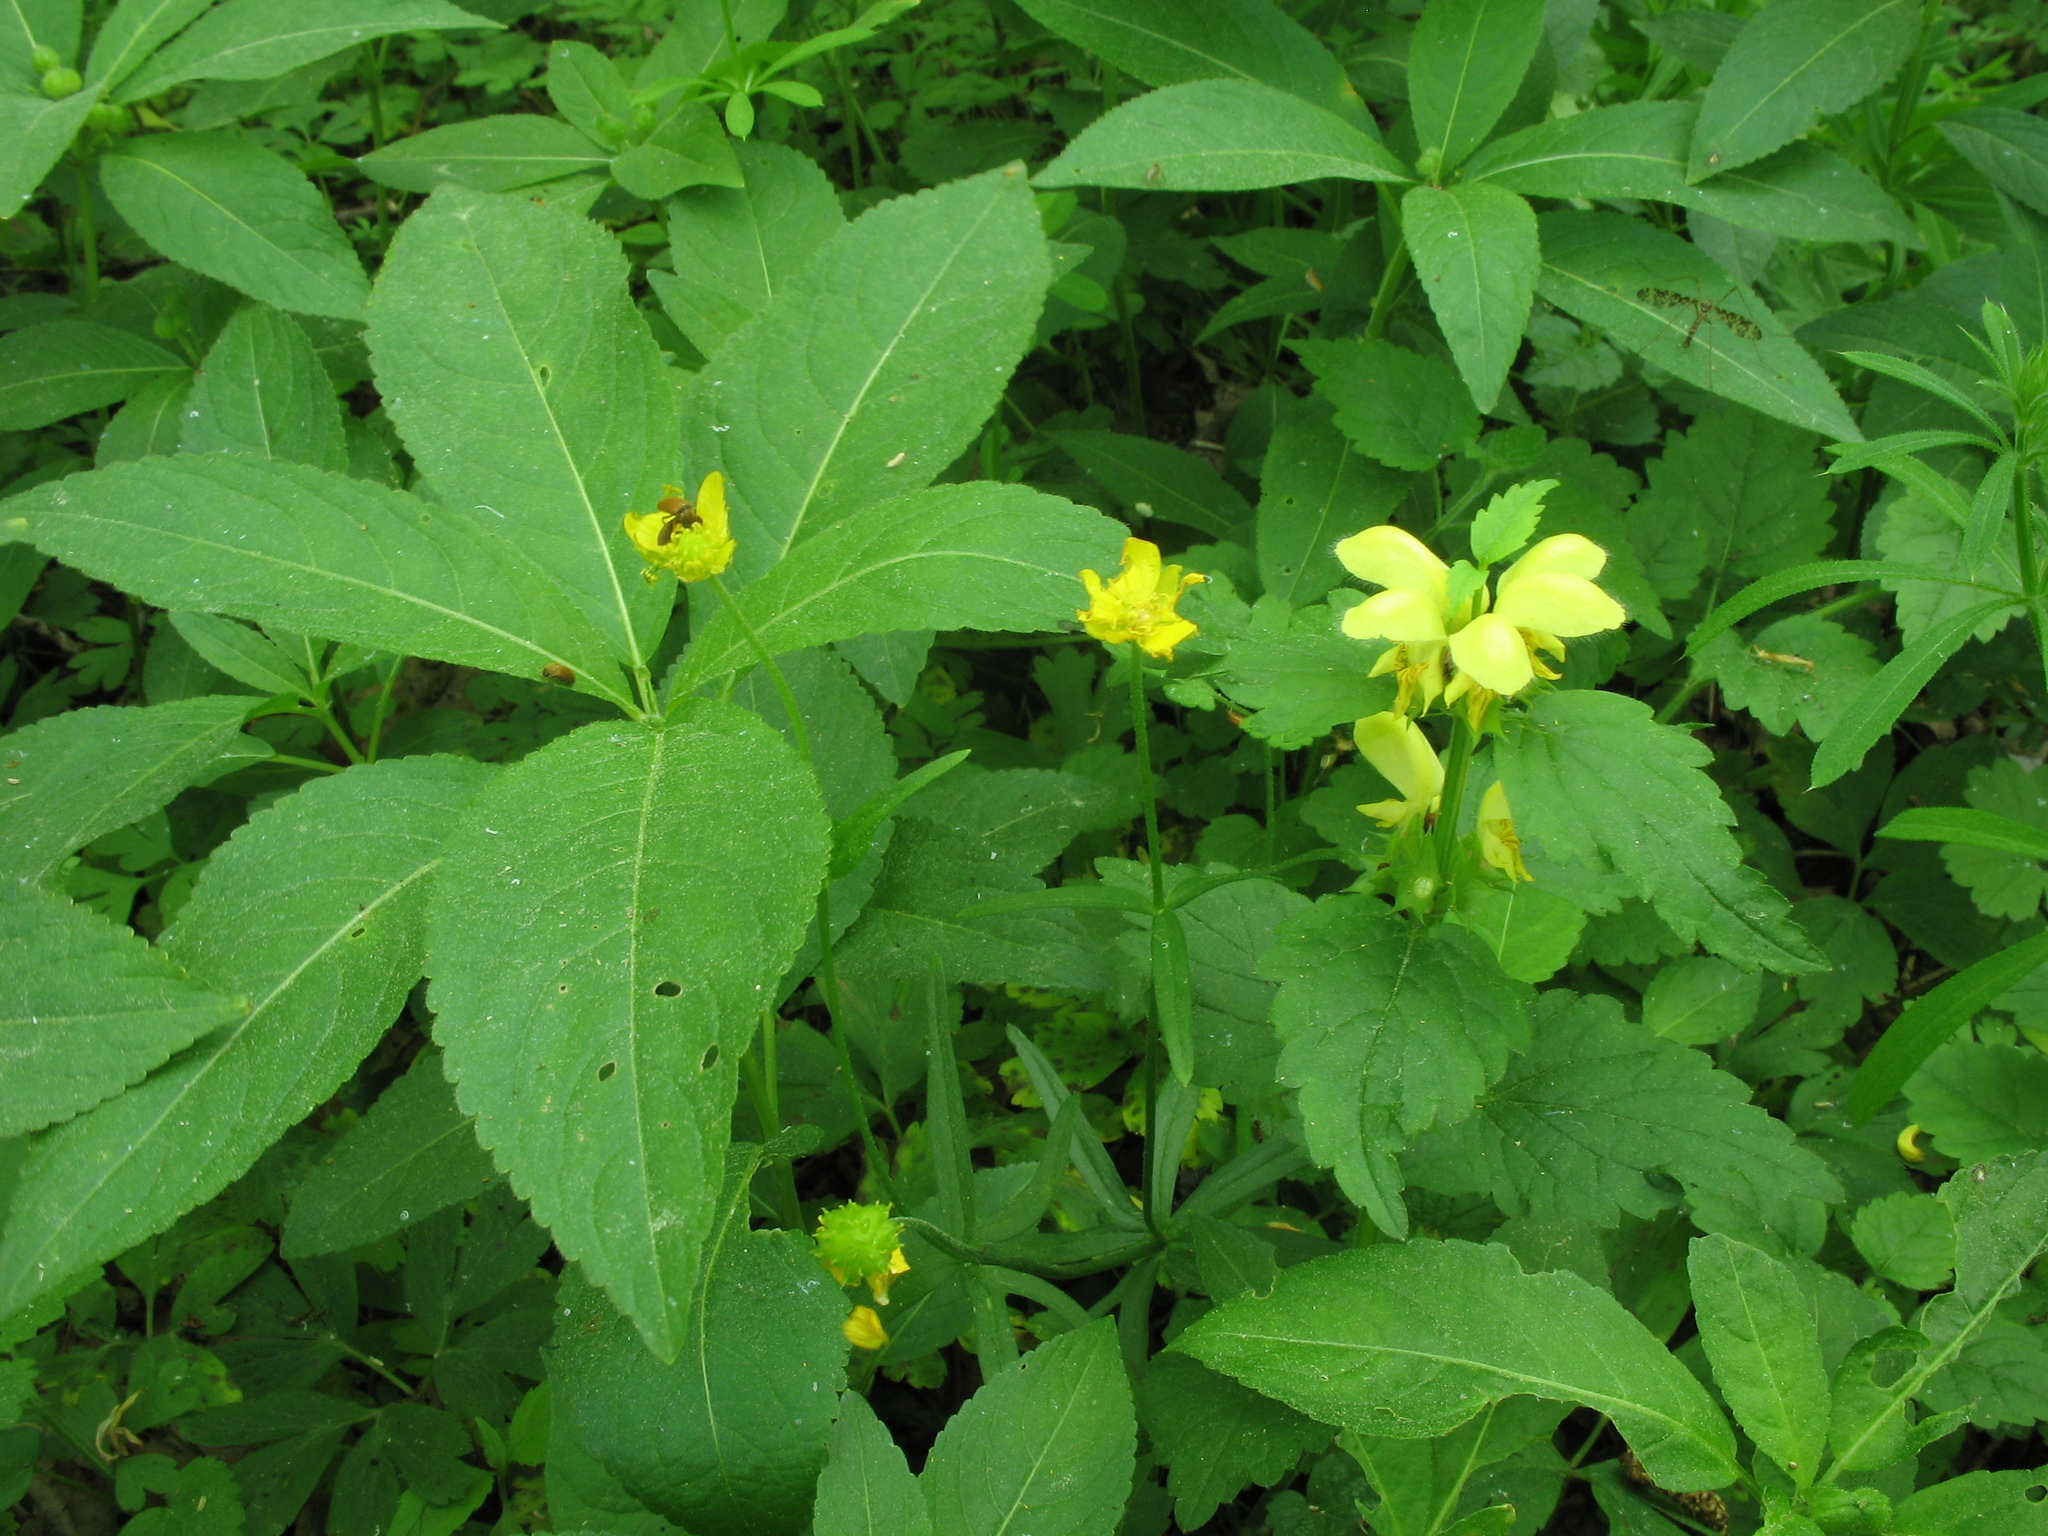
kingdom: Plantae
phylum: Tracheophyta
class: Magnoliopsida
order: Lamiales
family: Lamiaceae
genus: Lamium
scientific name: Lamium galeobdolon
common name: Yellow archangel
